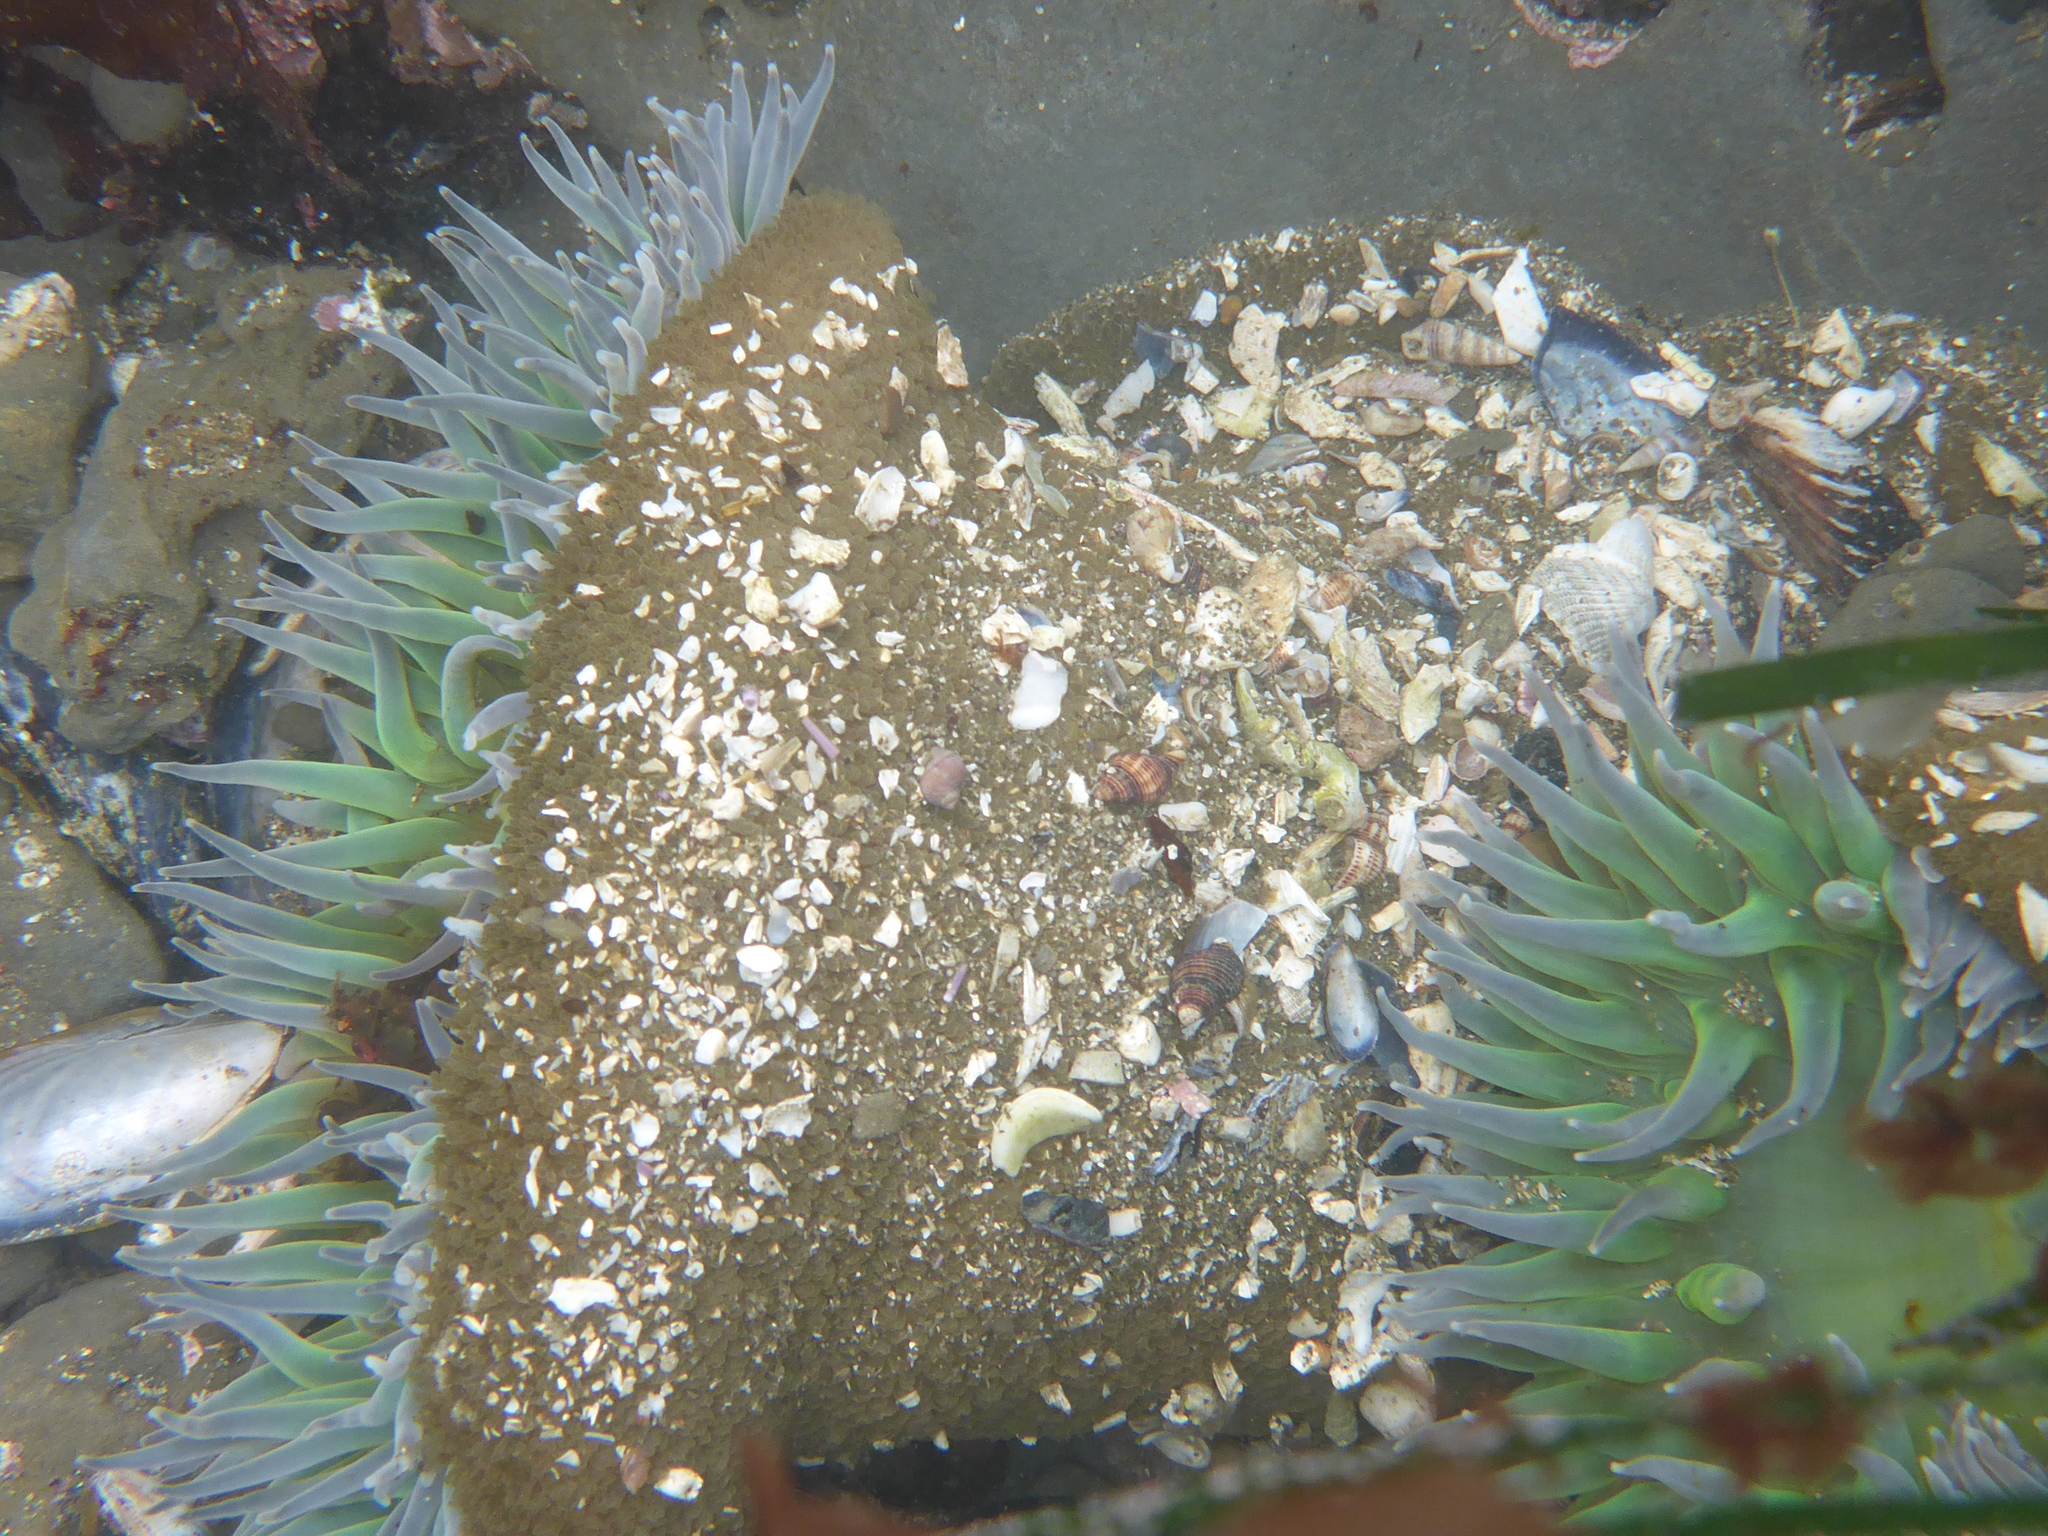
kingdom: Animalia
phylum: Cnidaria
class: Anthozoa
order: Actiniaria
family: Actiniidae
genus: Anthopleura
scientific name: Anthopleura xanthogrammica
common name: Giant green anemone
